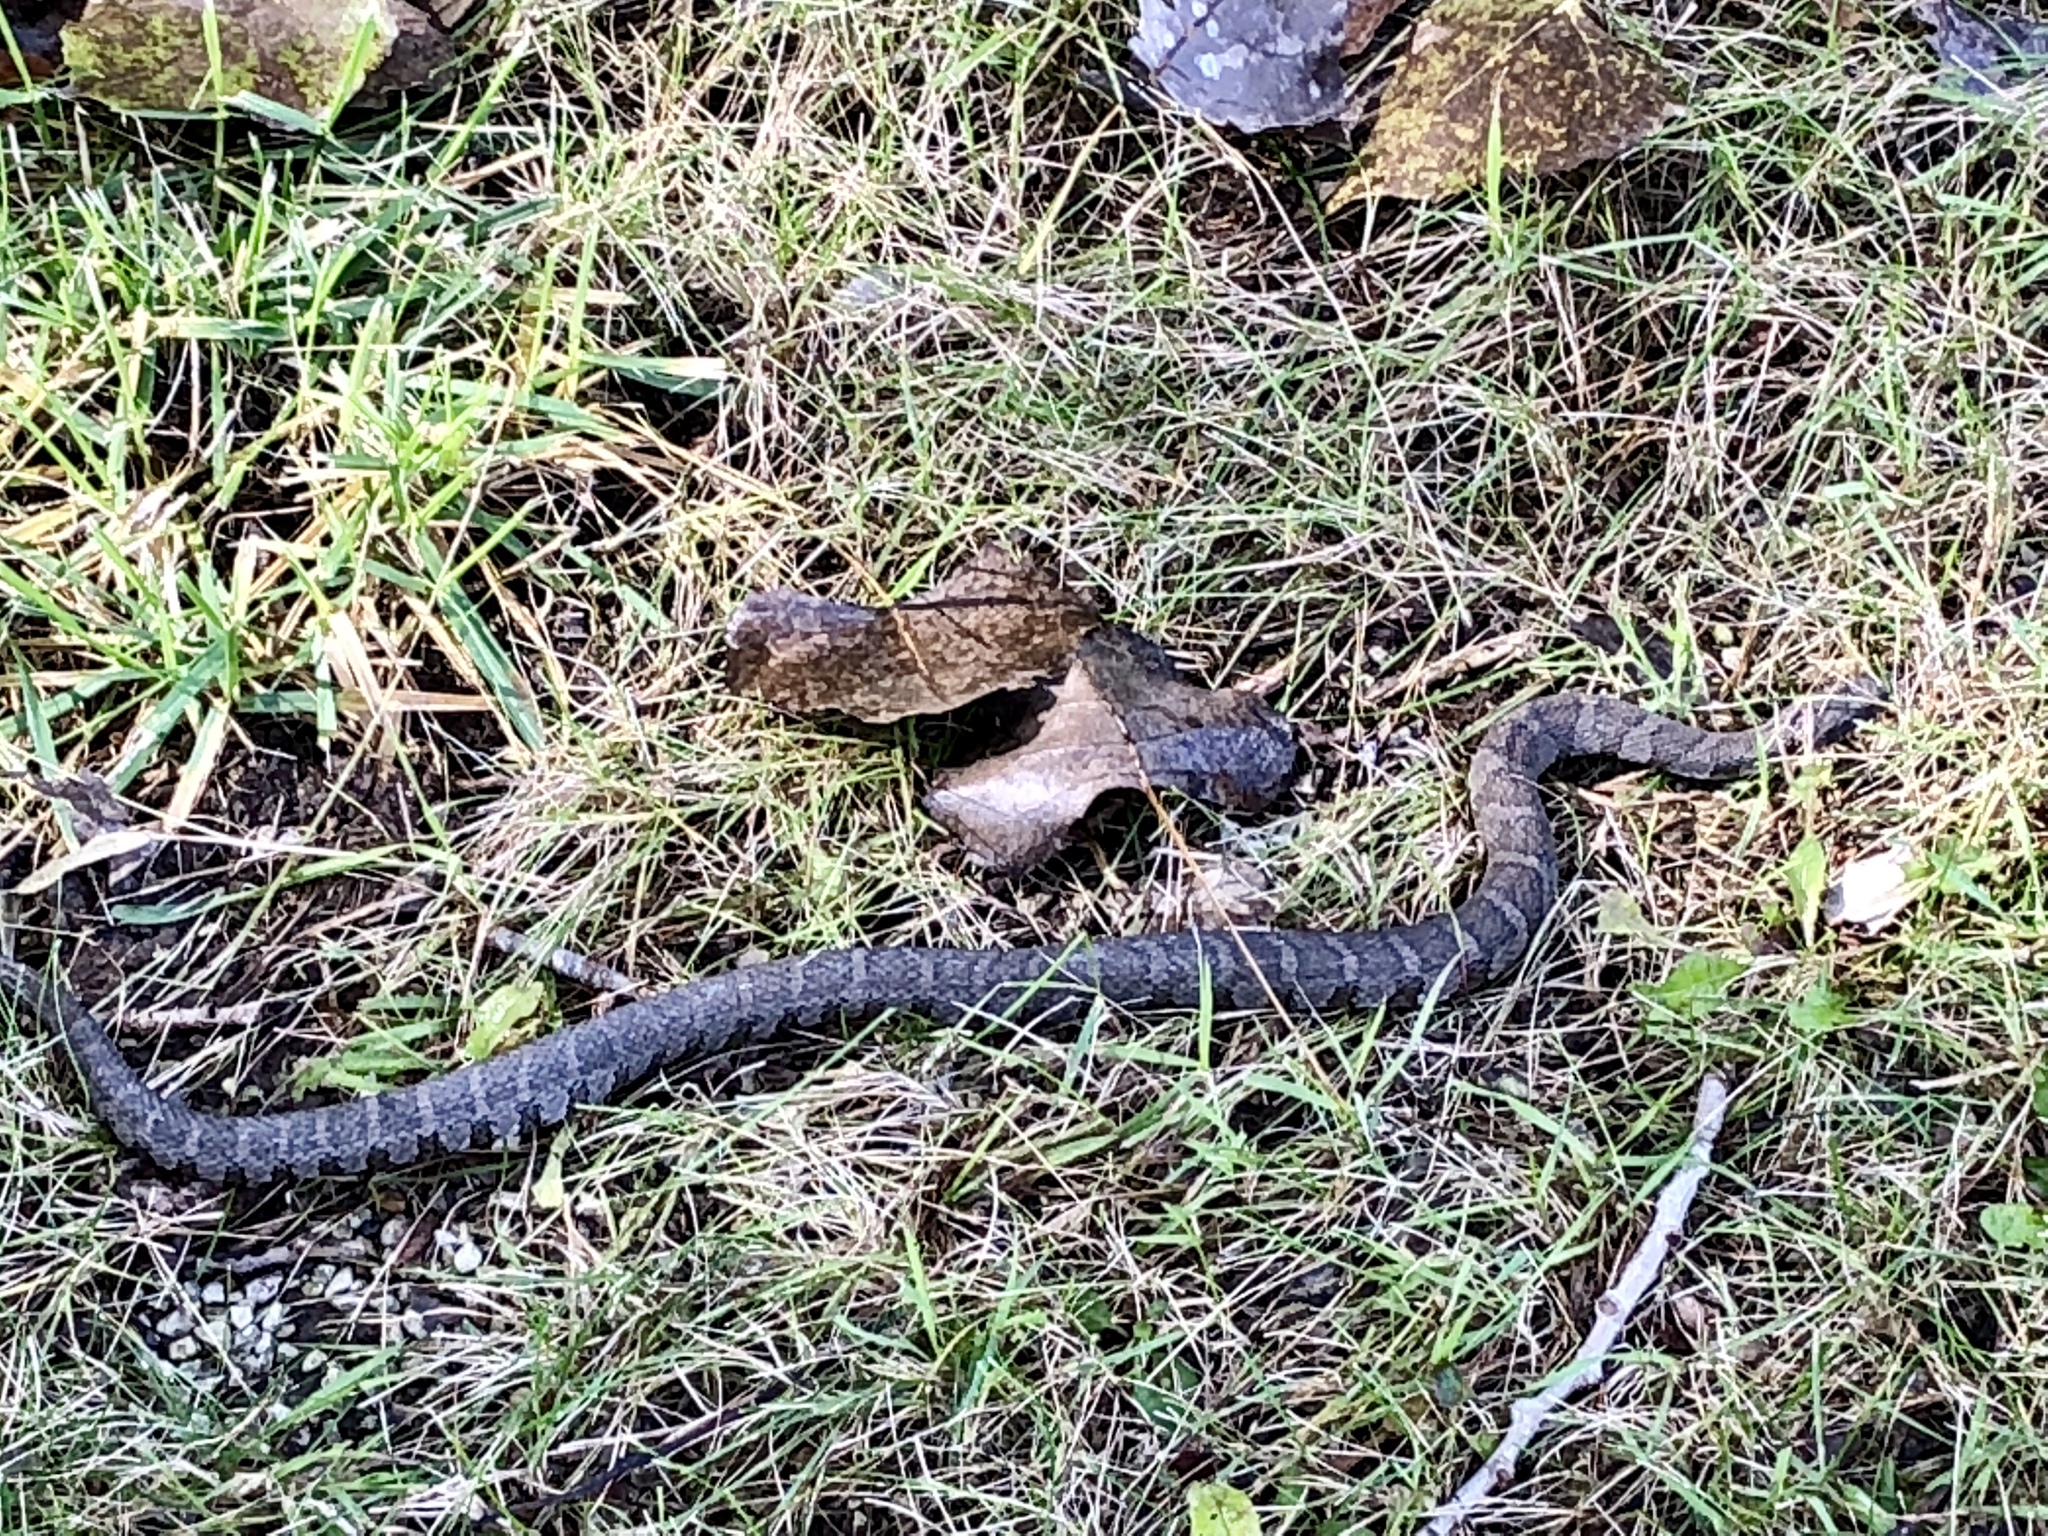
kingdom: Animalia
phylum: Chordata
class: Squamata
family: Colubridae
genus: Nerodia
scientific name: Nerodia sipedon
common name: Northern water snake
